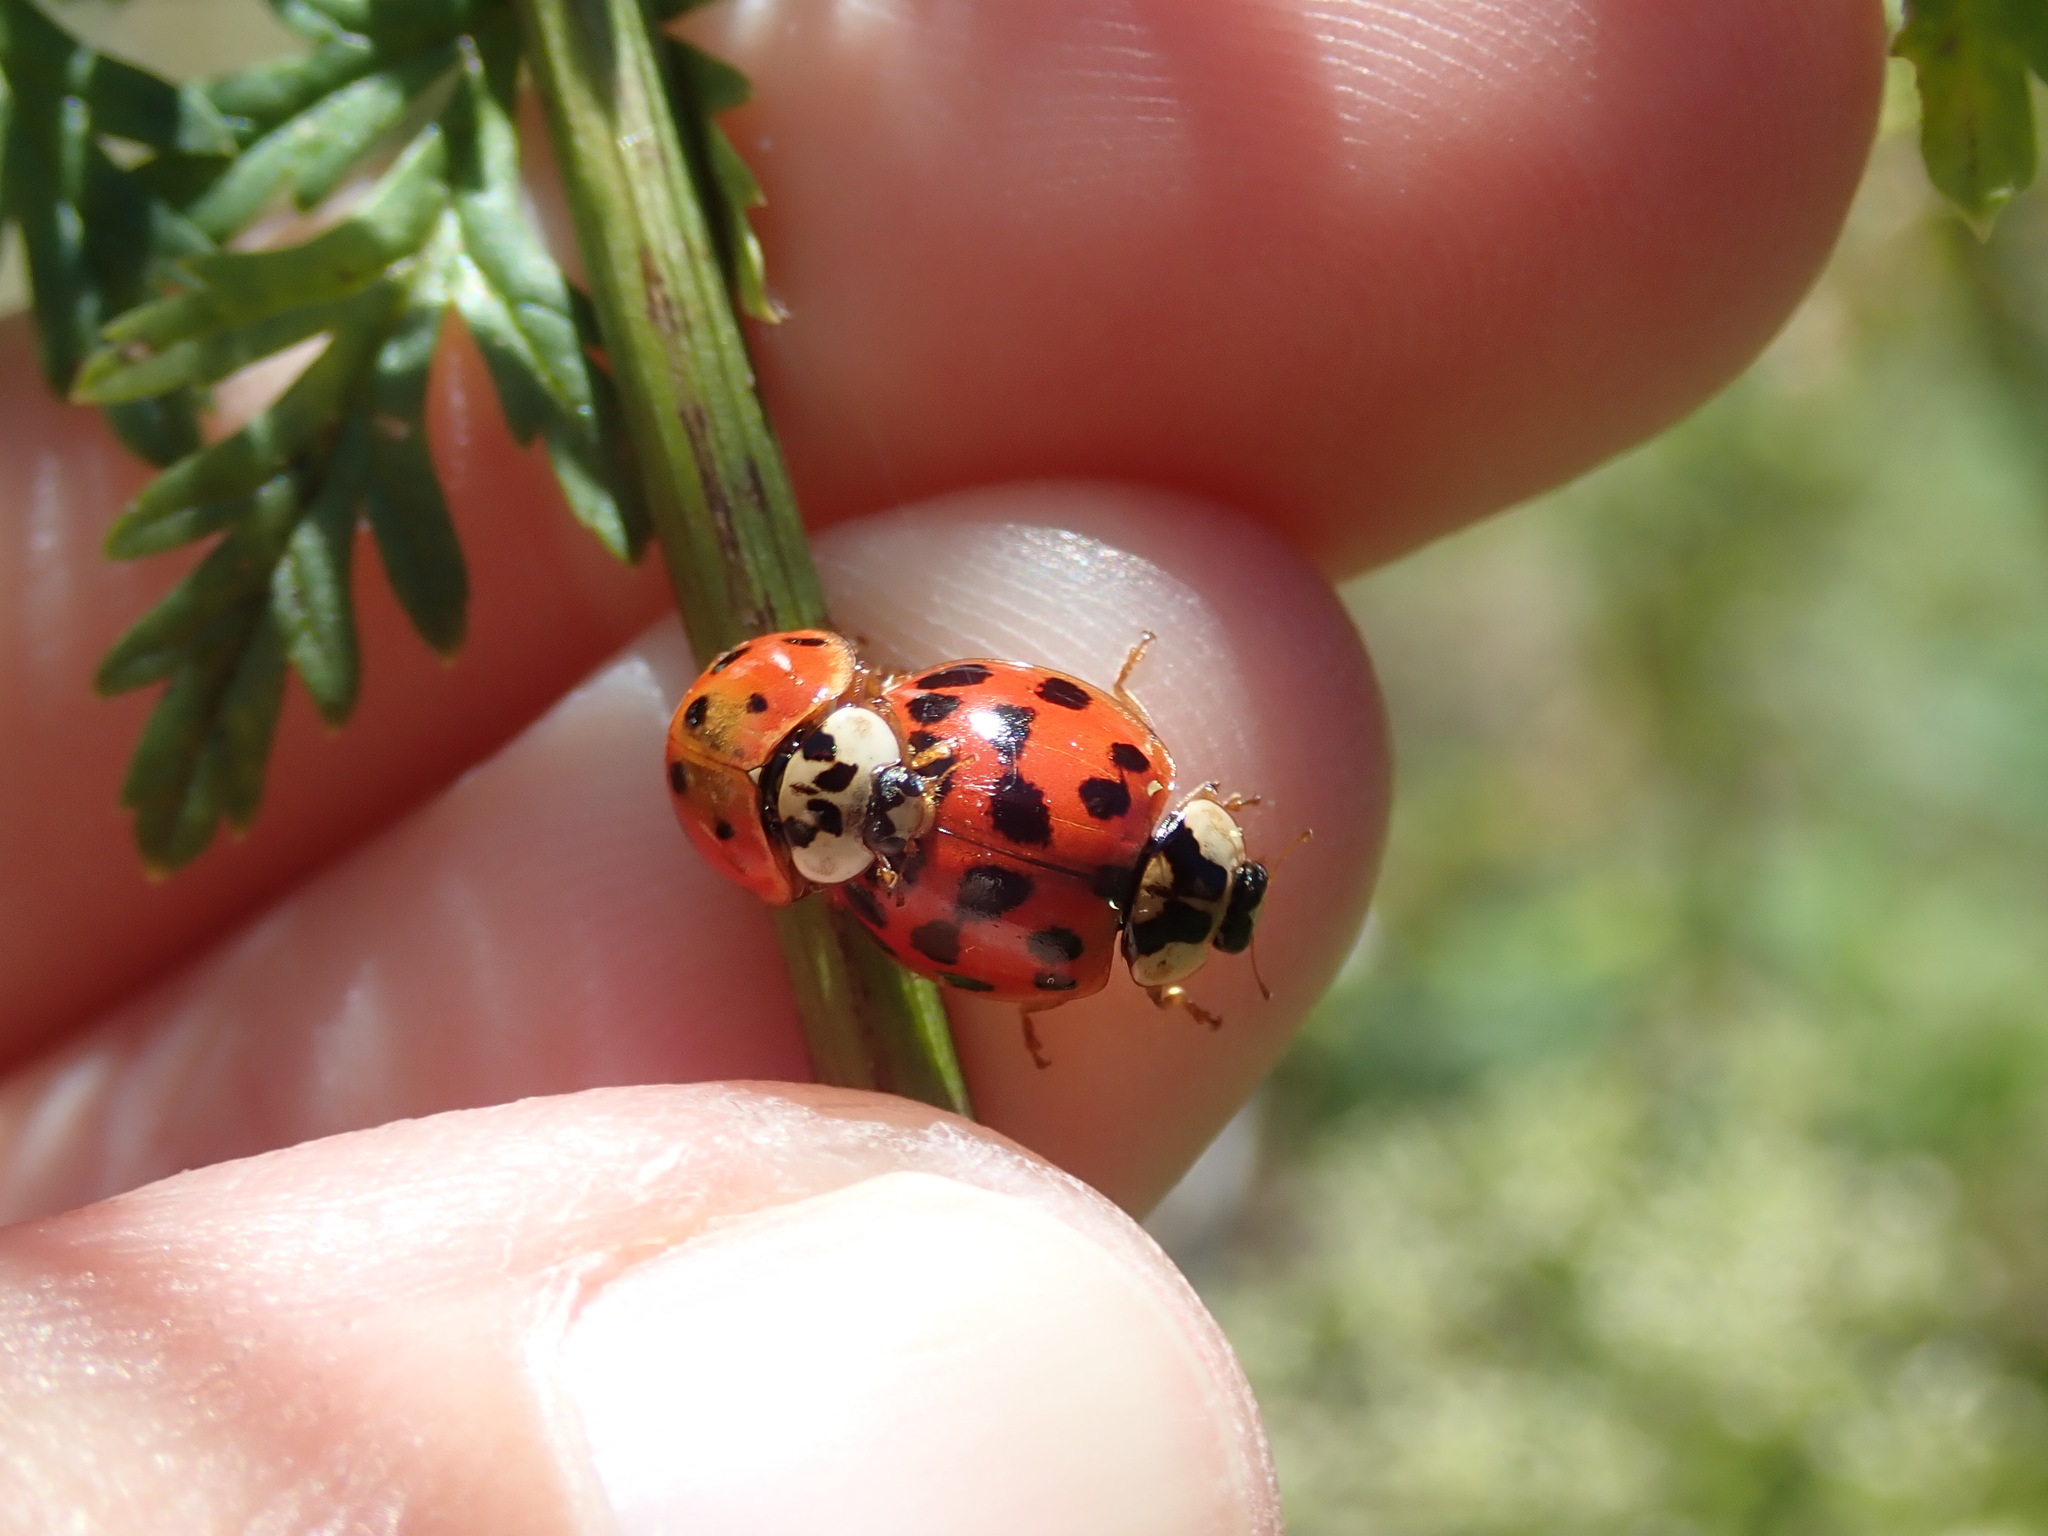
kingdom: Animalia
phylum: Arthropoda
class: Insecta
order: Coleoptera
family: Coccinellidae
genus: Harmonia
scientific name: Harmonia axyridis
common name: Harlequin ladybird
